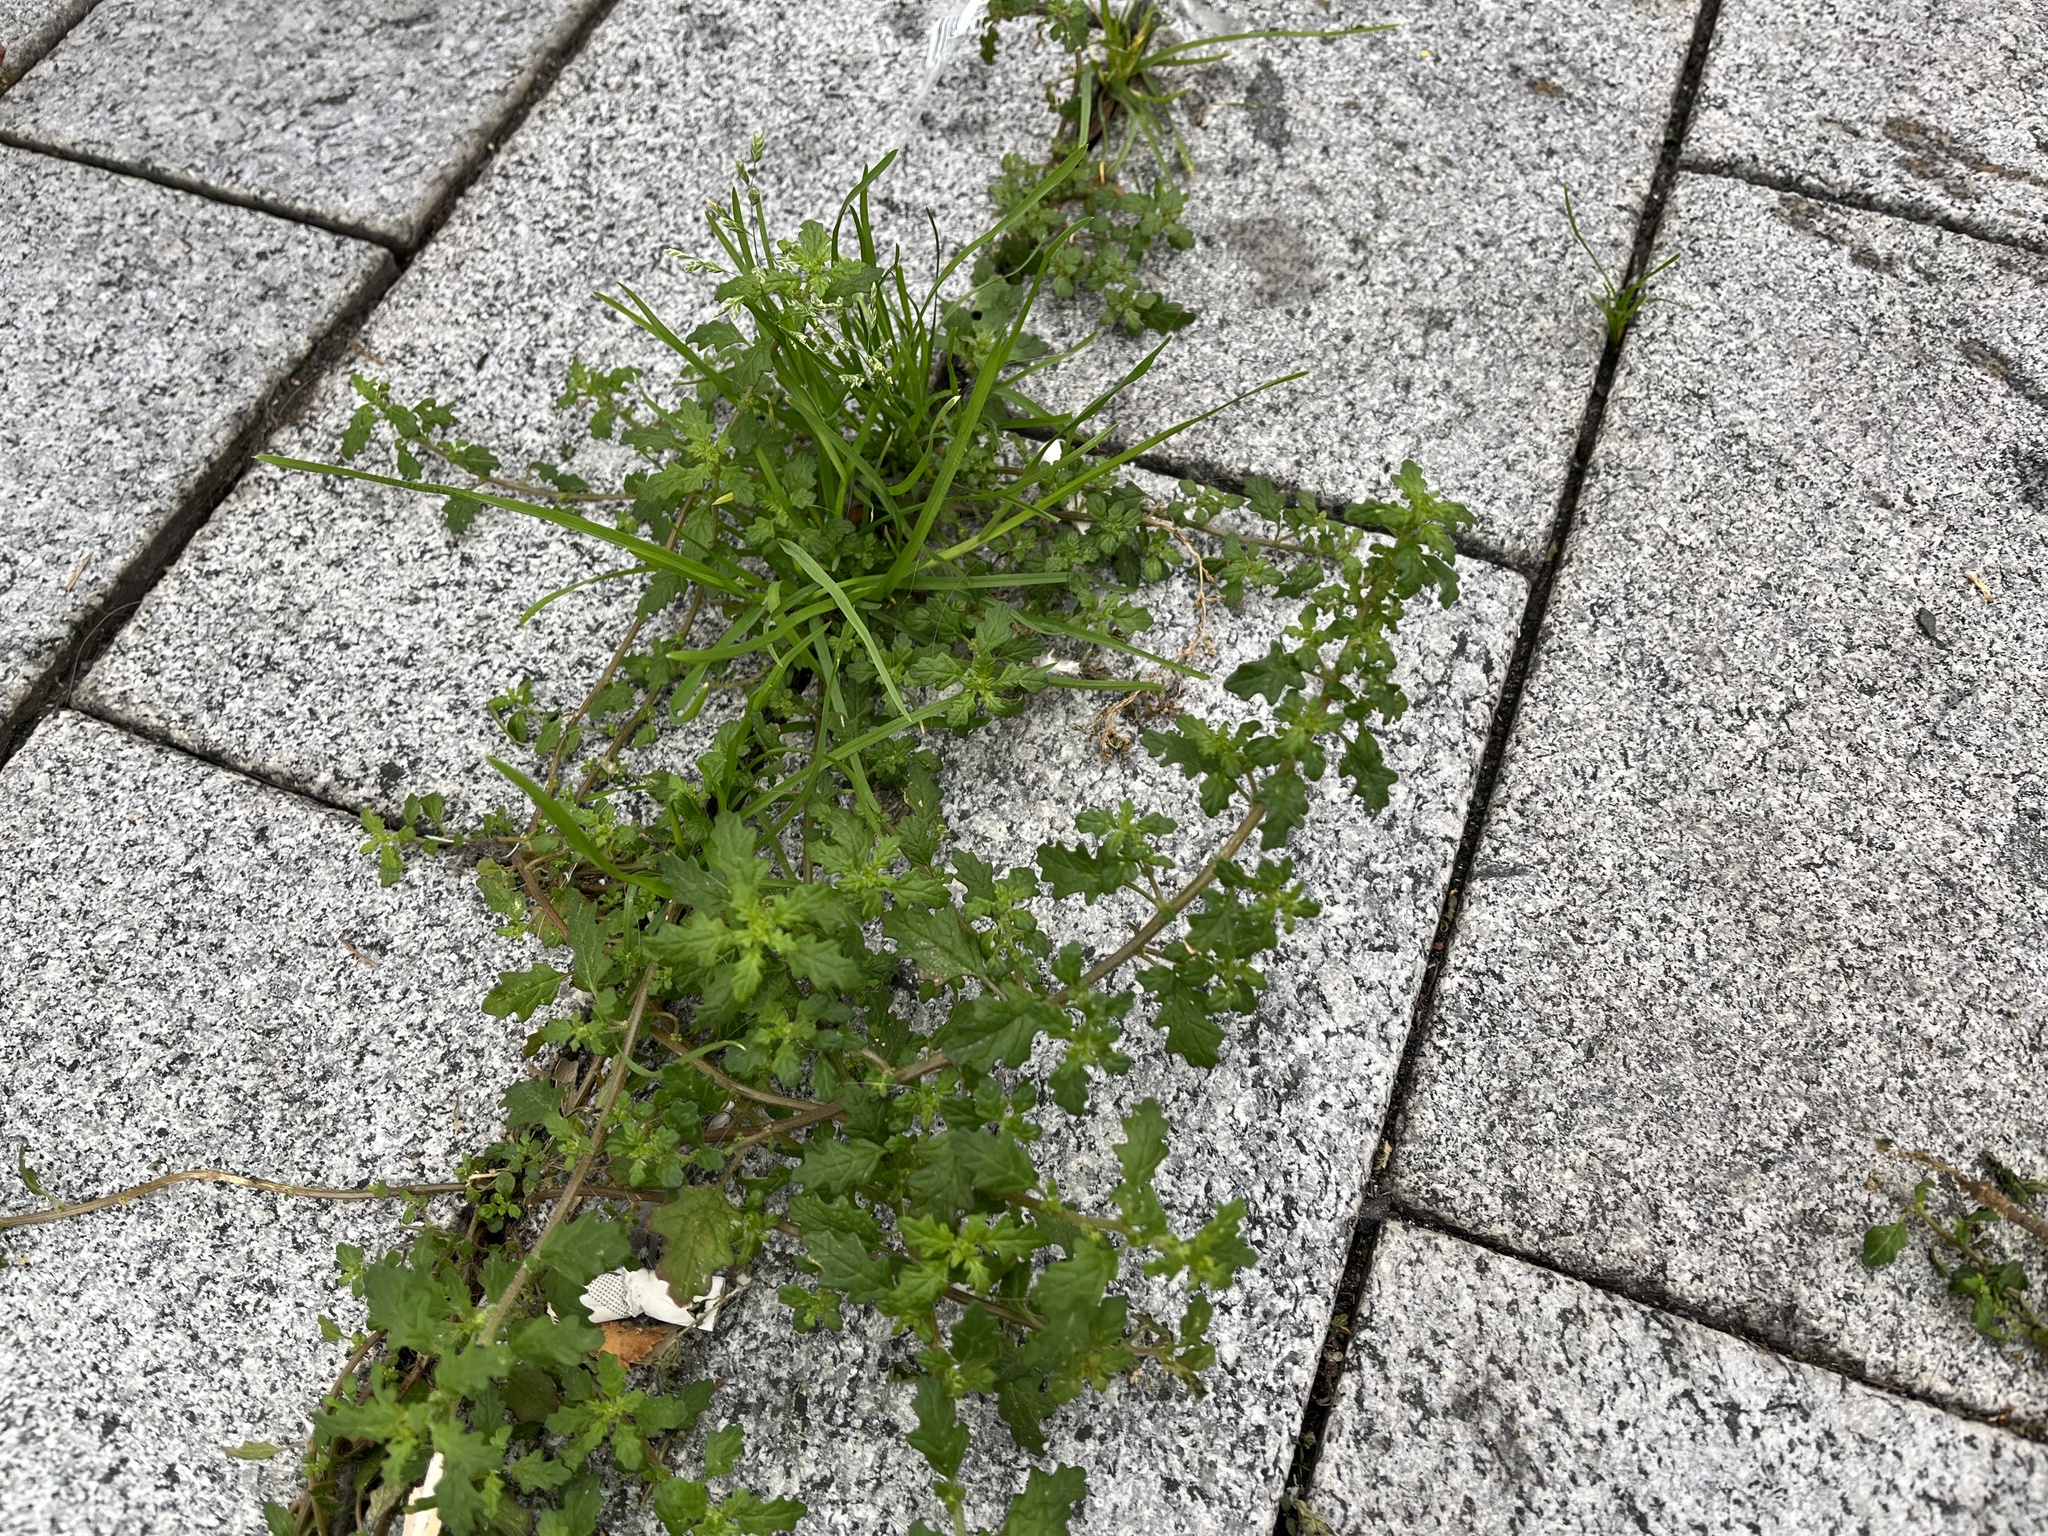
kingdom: Plantae
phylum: Tracheophyta
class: Magnoliopsida
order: Caryophyllales
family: Amaranthaceae
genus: Dysphania
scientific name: Dysphania pumilio
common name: Clammy goosefoot
